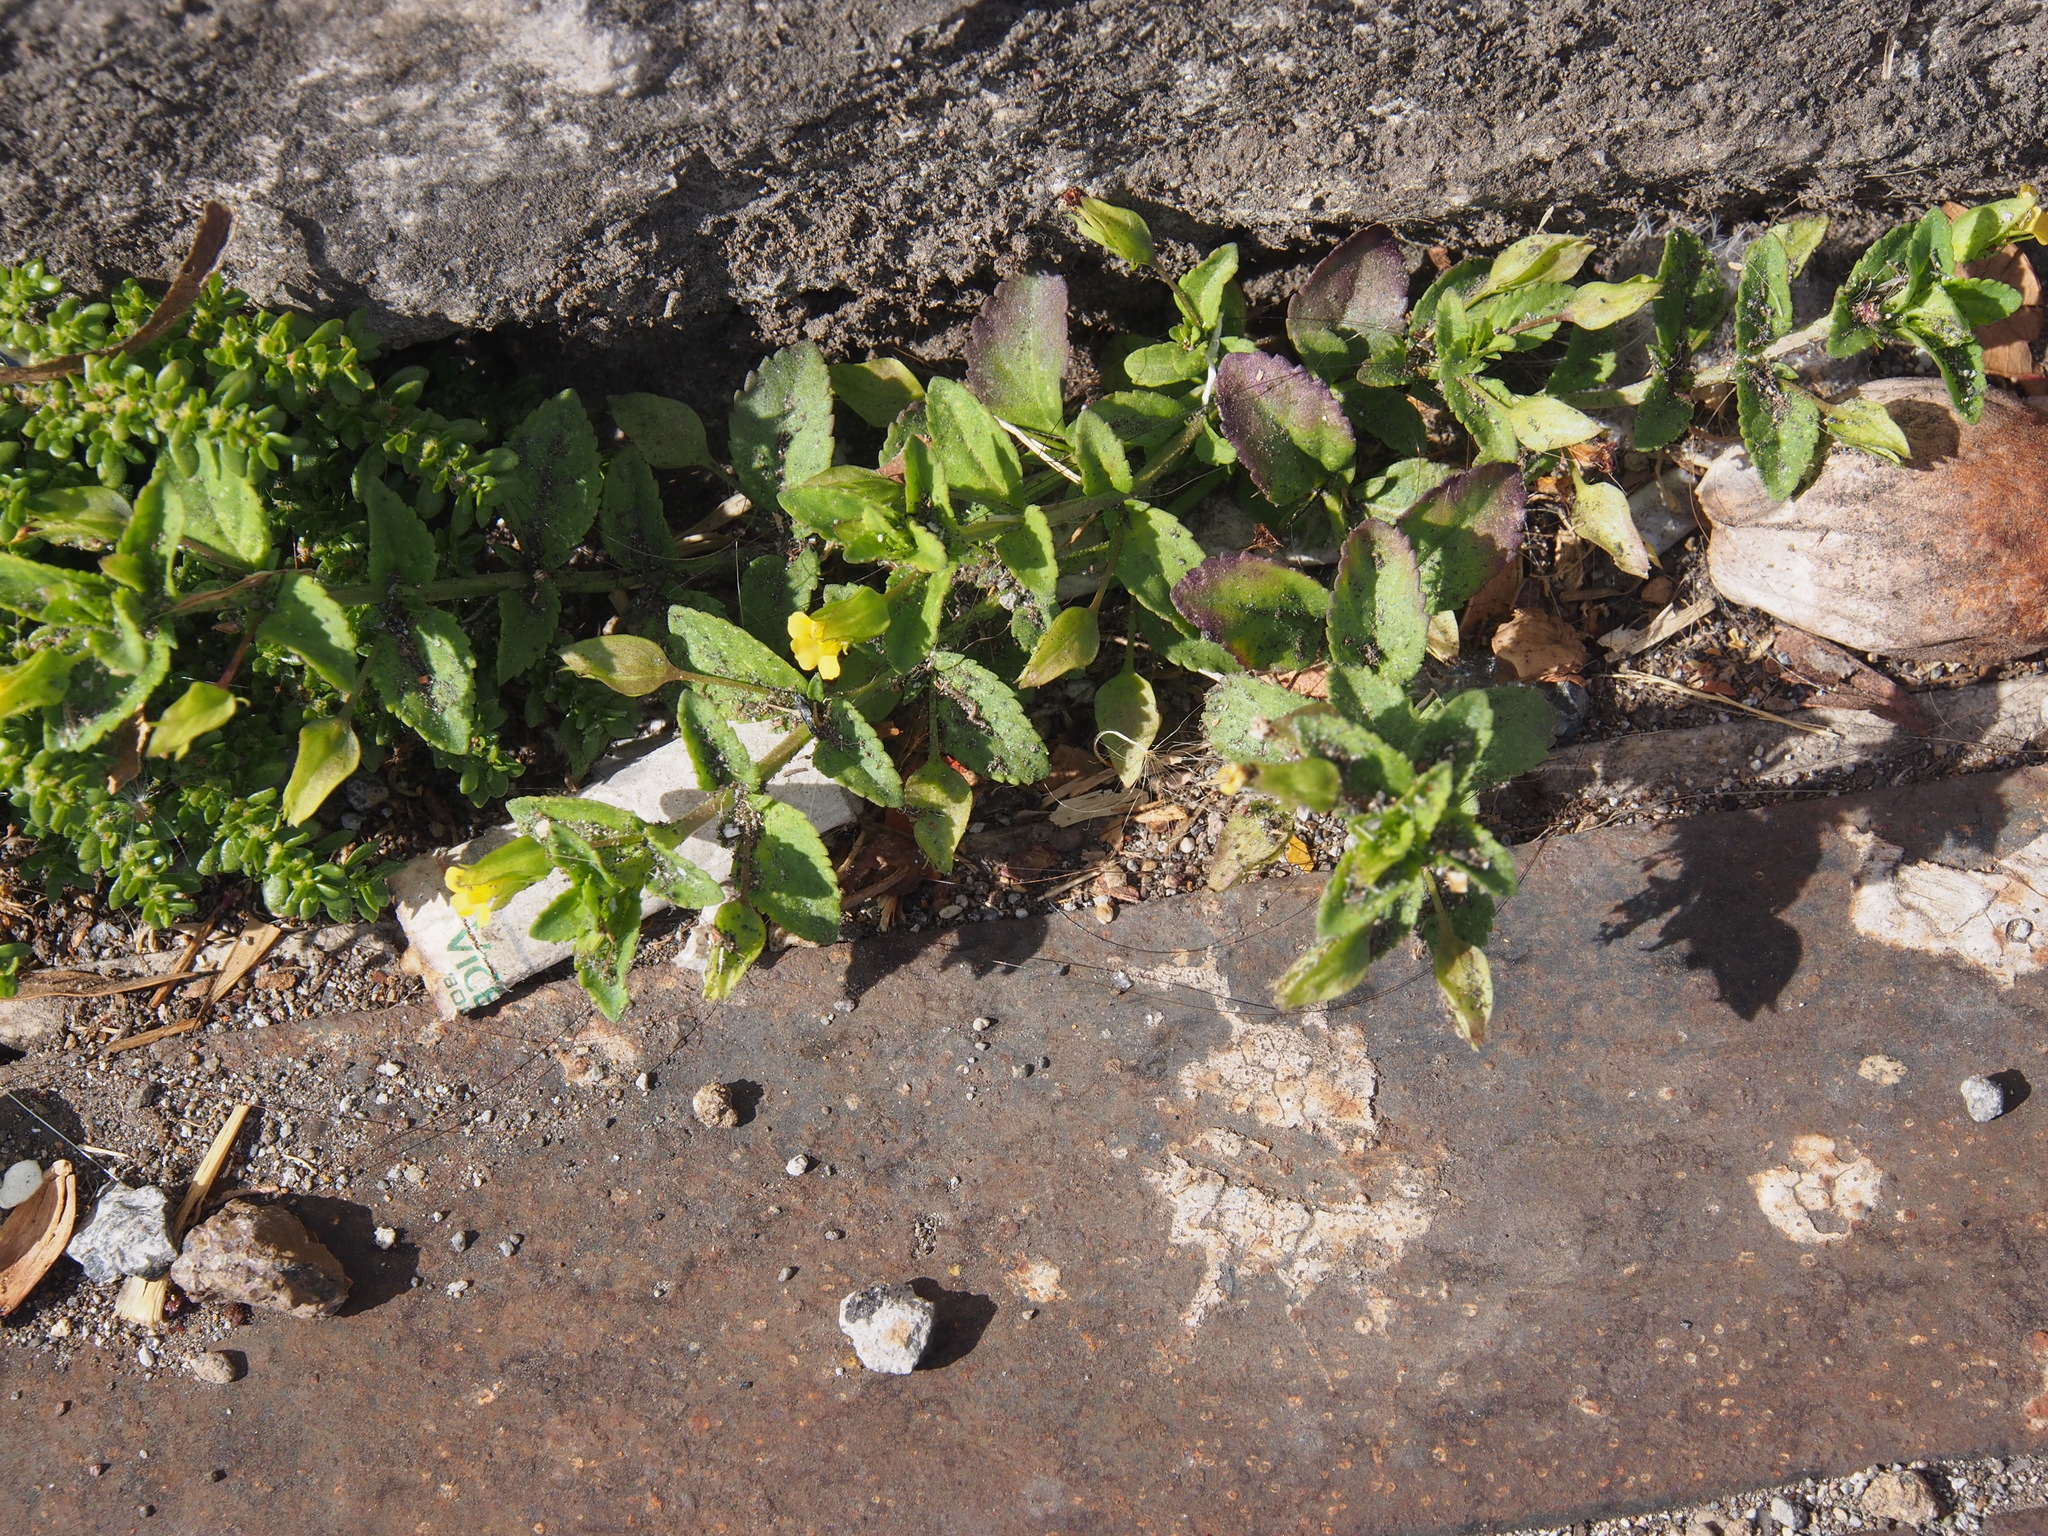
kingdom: Plantae
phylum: Tracheophyta
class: Magnoliopsida
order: Lamiales
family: Plantaginaceae
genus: Mecardonia
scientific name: Mecardonia procumbens
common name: Baby jump-up
